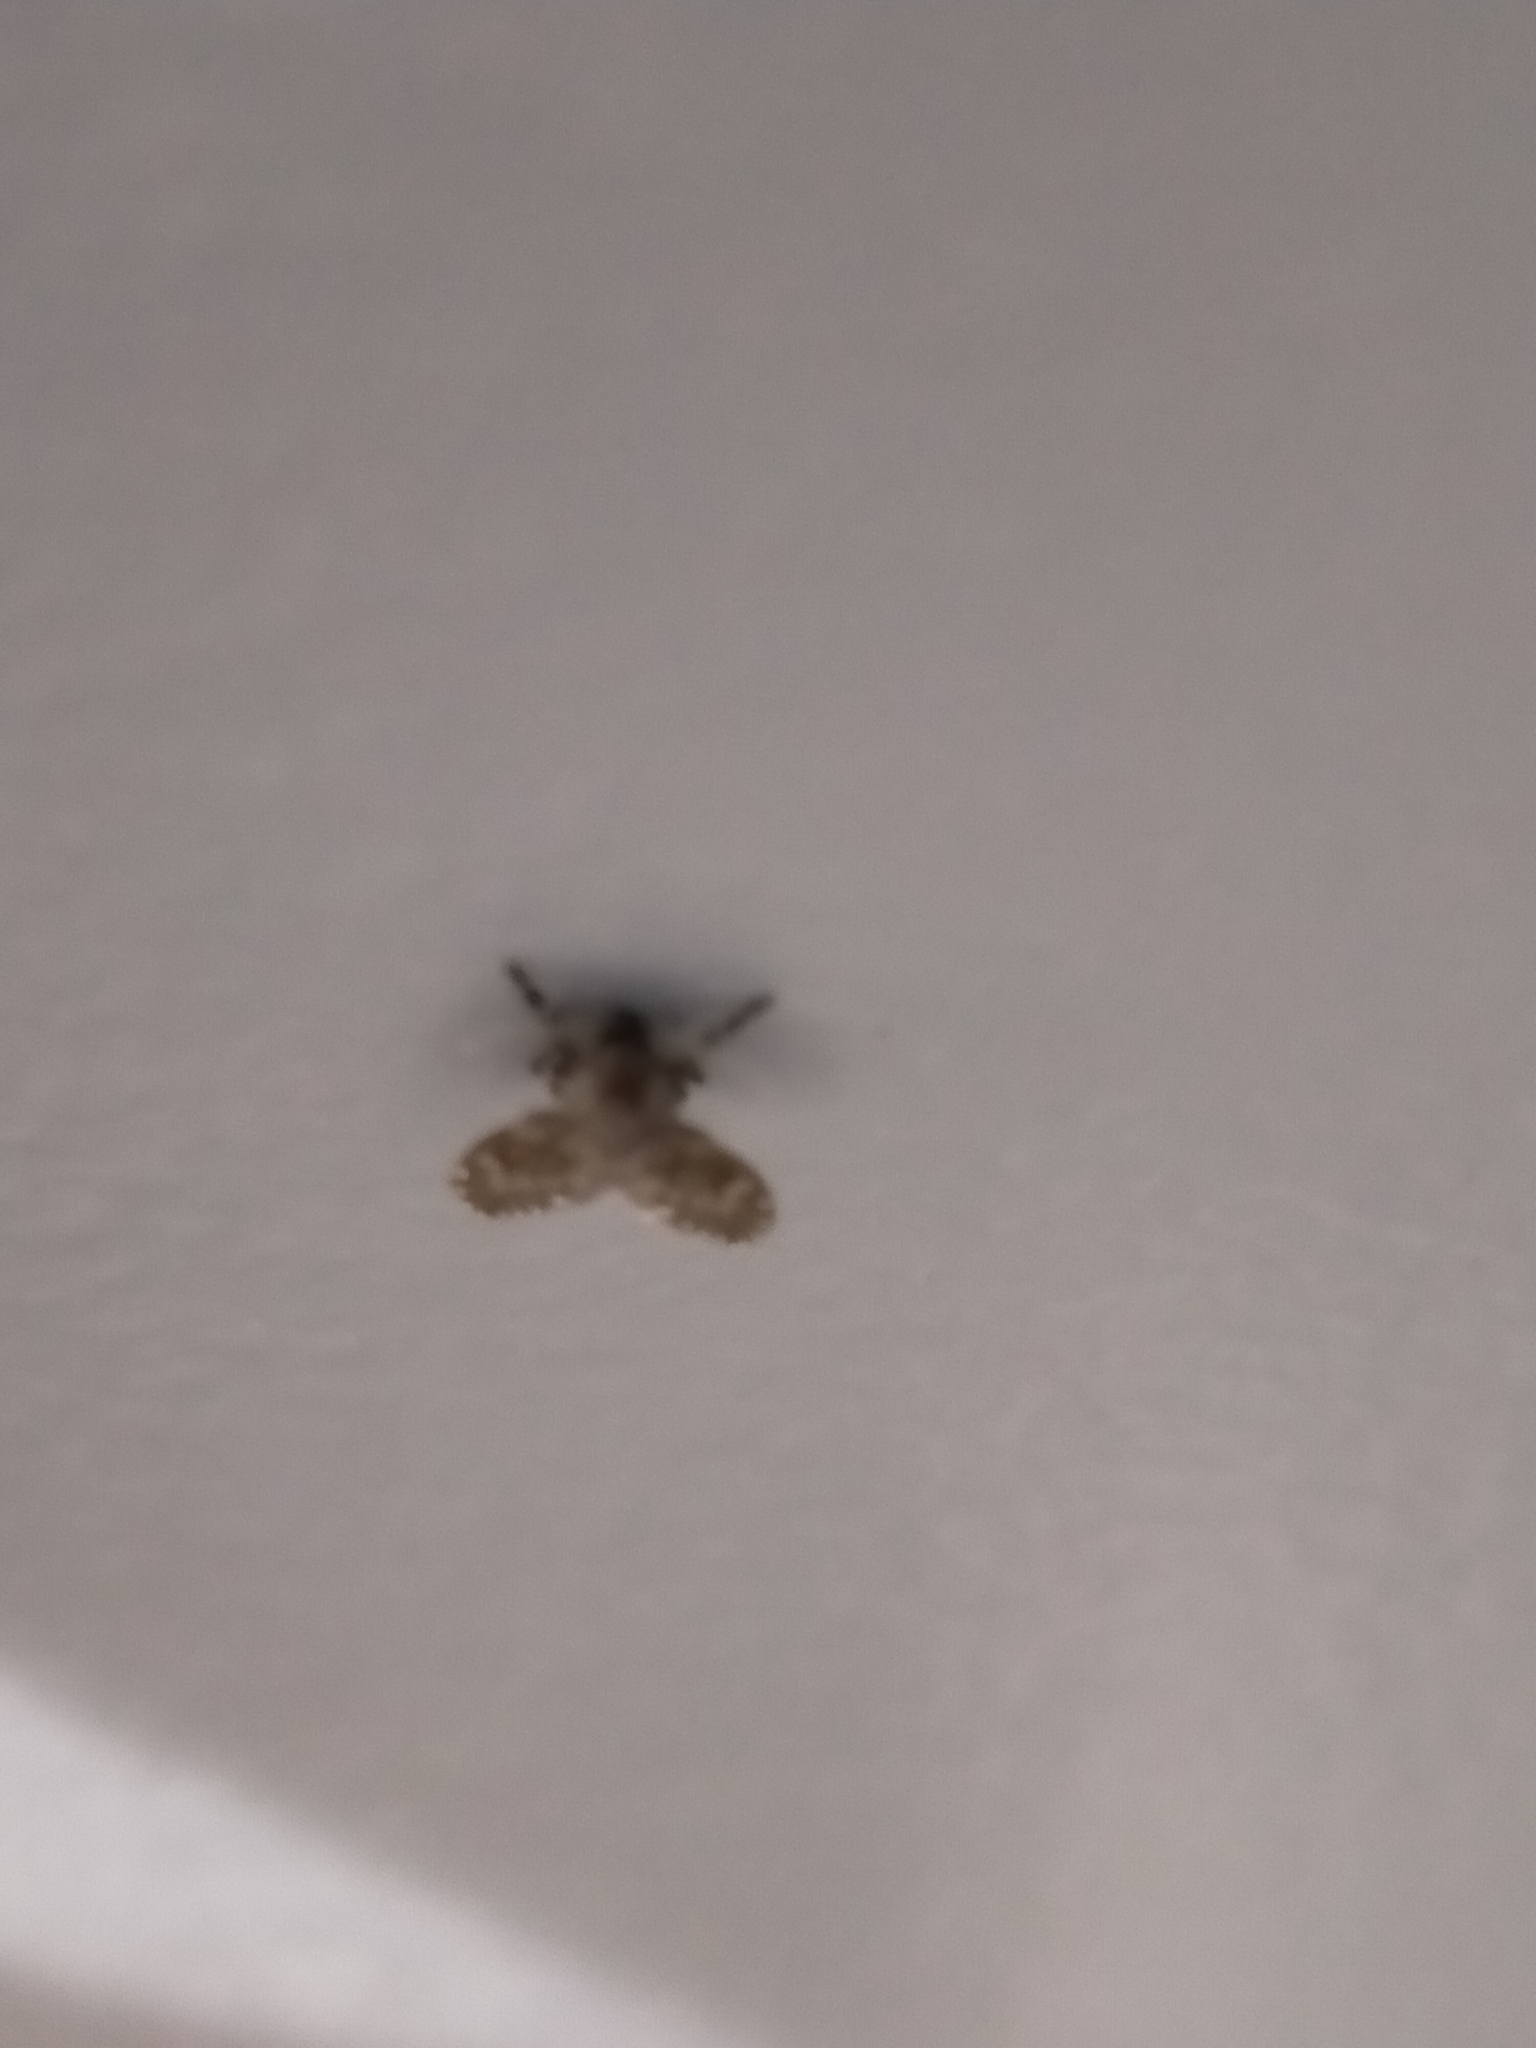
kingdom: Animalia
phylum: Arthropoda
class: Insecta
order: Diptera
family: Psychodidae
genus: Clogmia
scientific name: Clogmia albipunctatus
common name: White-spotted moth fly
